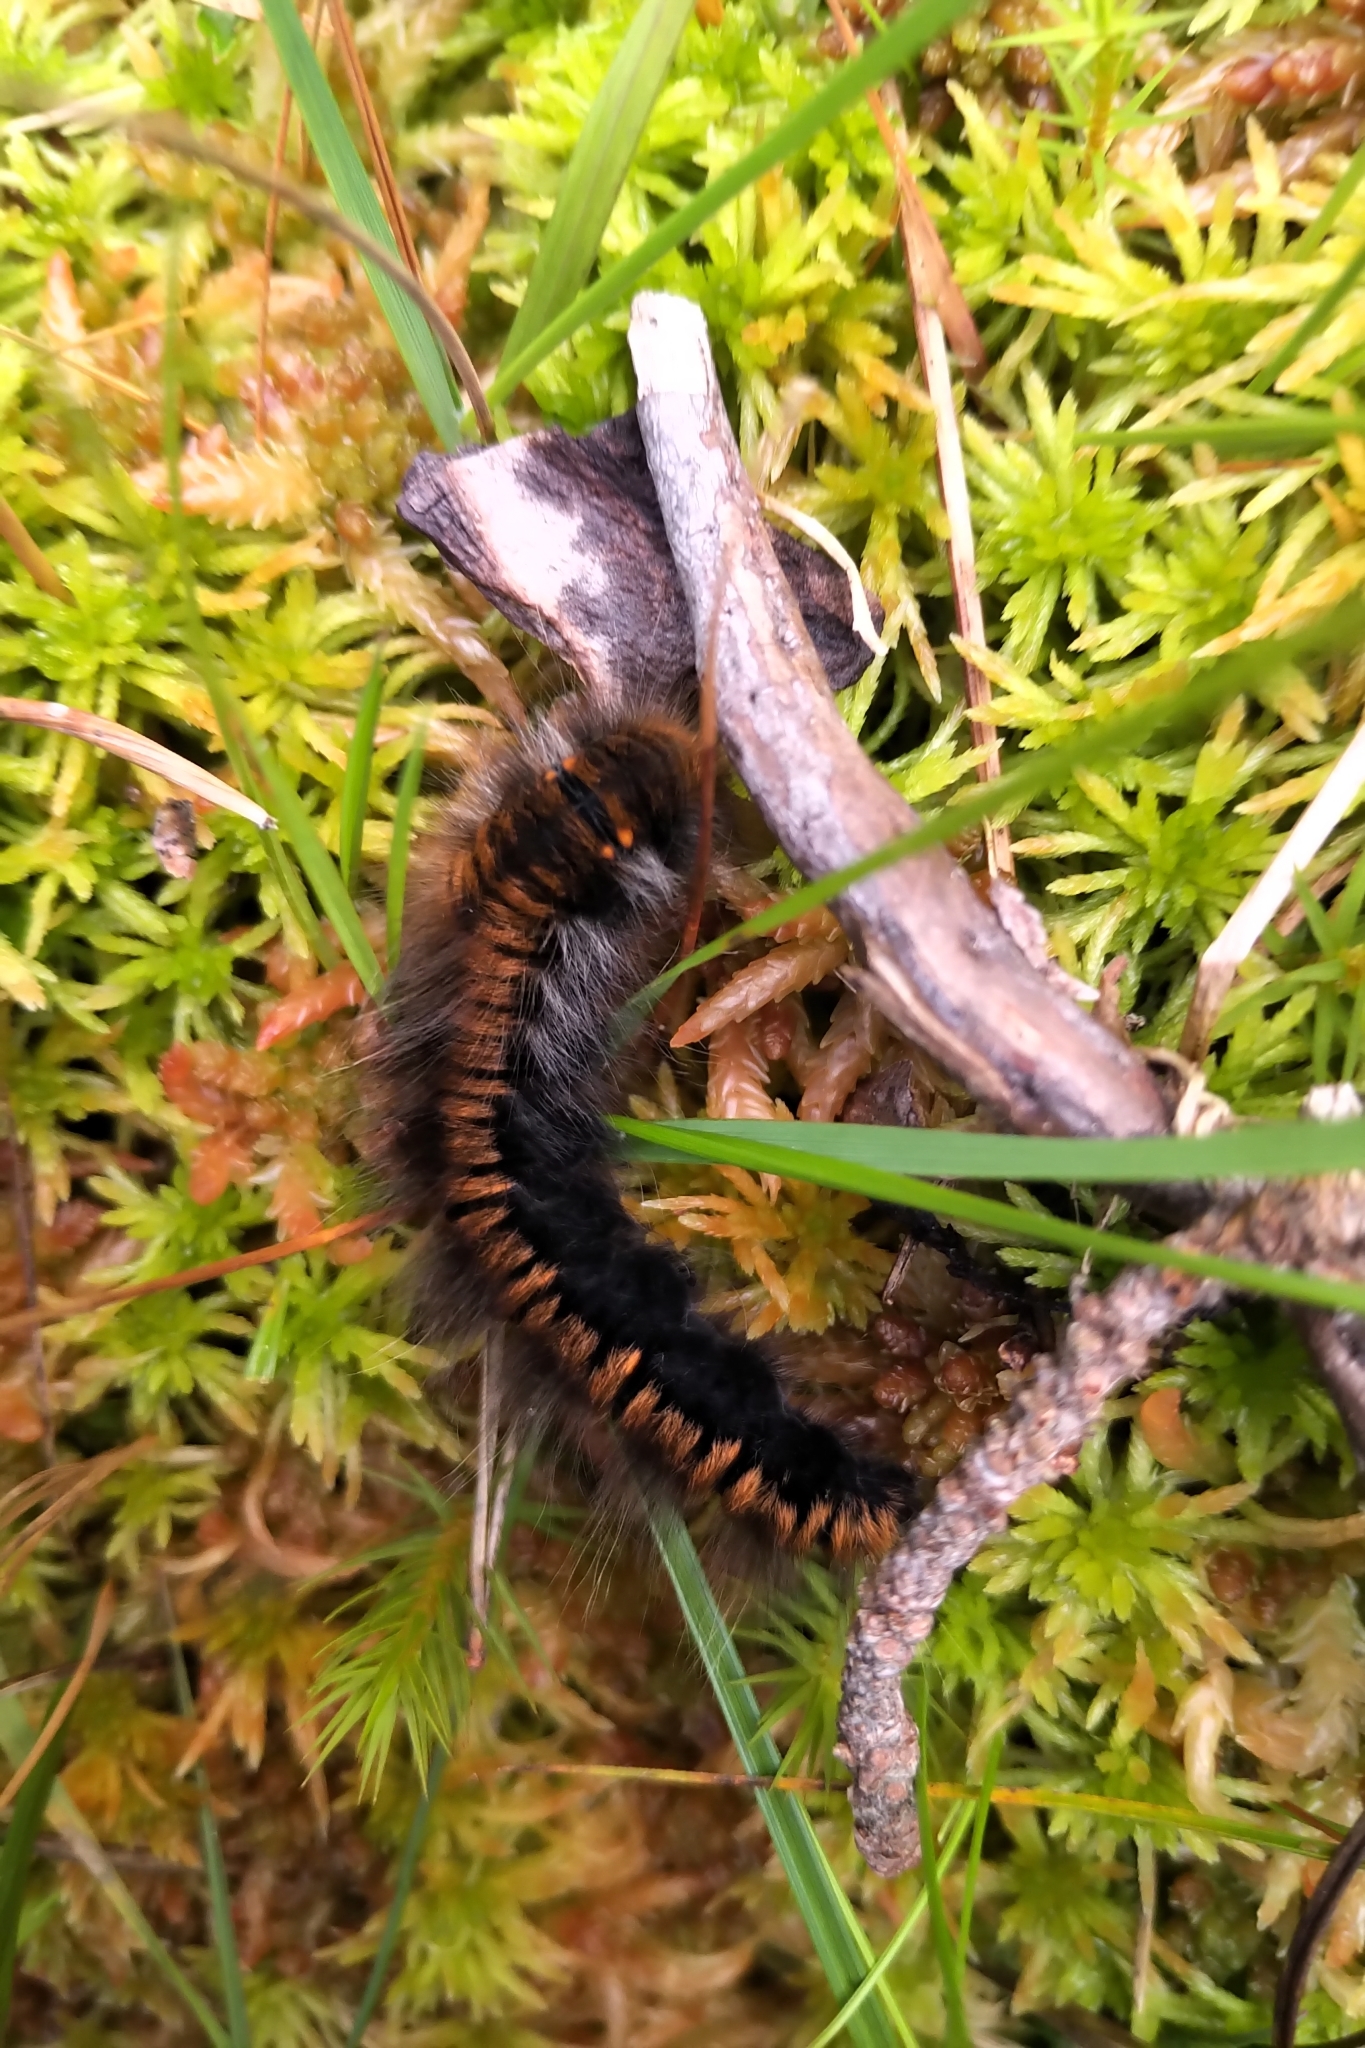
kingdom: Animalia
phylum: Arthropoda
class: Insecta
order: Lepidoptera
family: Lasiocampidae
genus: Macrothylacia
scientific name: Macrothylacia rubi
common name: Fox moth
